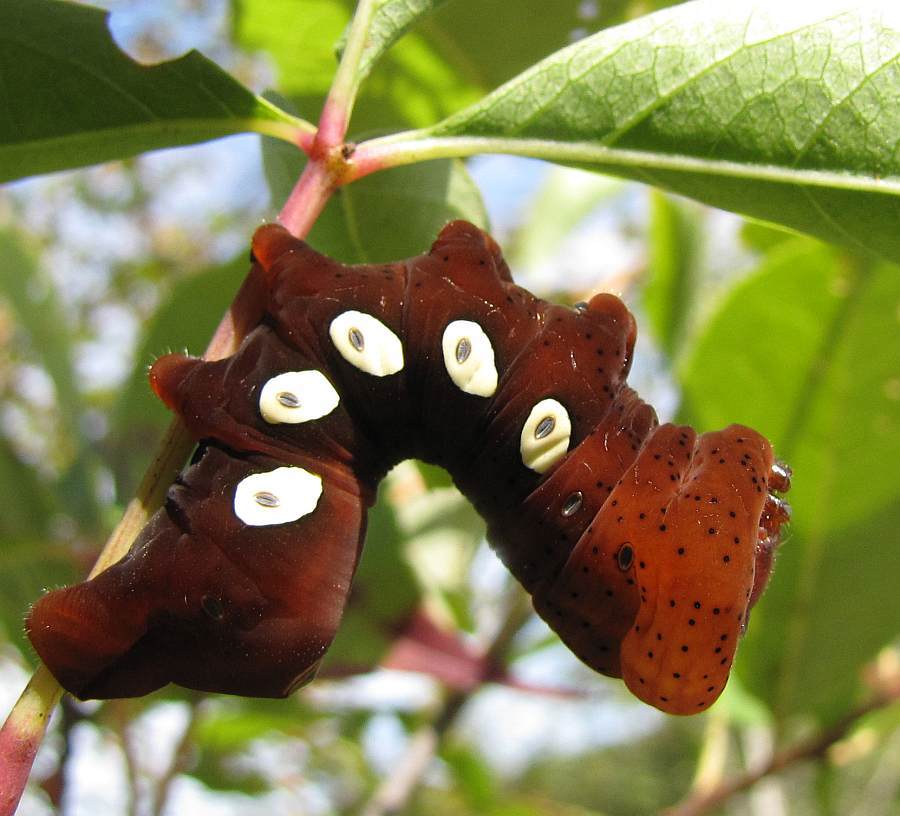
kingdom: Animalia
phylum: Arthropoda
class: Insecta
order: Lepidoptera
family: Sphingidae
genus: Eumorpha
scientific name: Eumorpha pandorus
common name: Pandora sphinx
